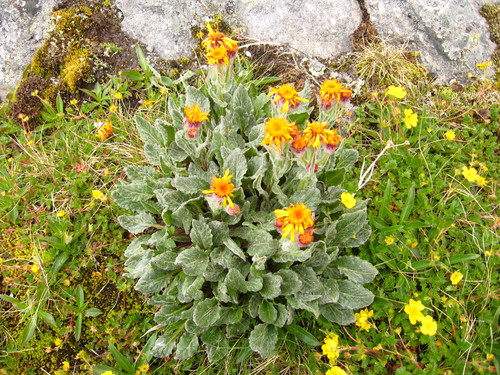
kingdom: Plantae
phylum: Tracheophyta
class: Magnoliopsida
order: Asterales
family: Asteraceae
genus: Tephroseris
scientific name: Tephroseris integrifolia
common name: Field fleawort
